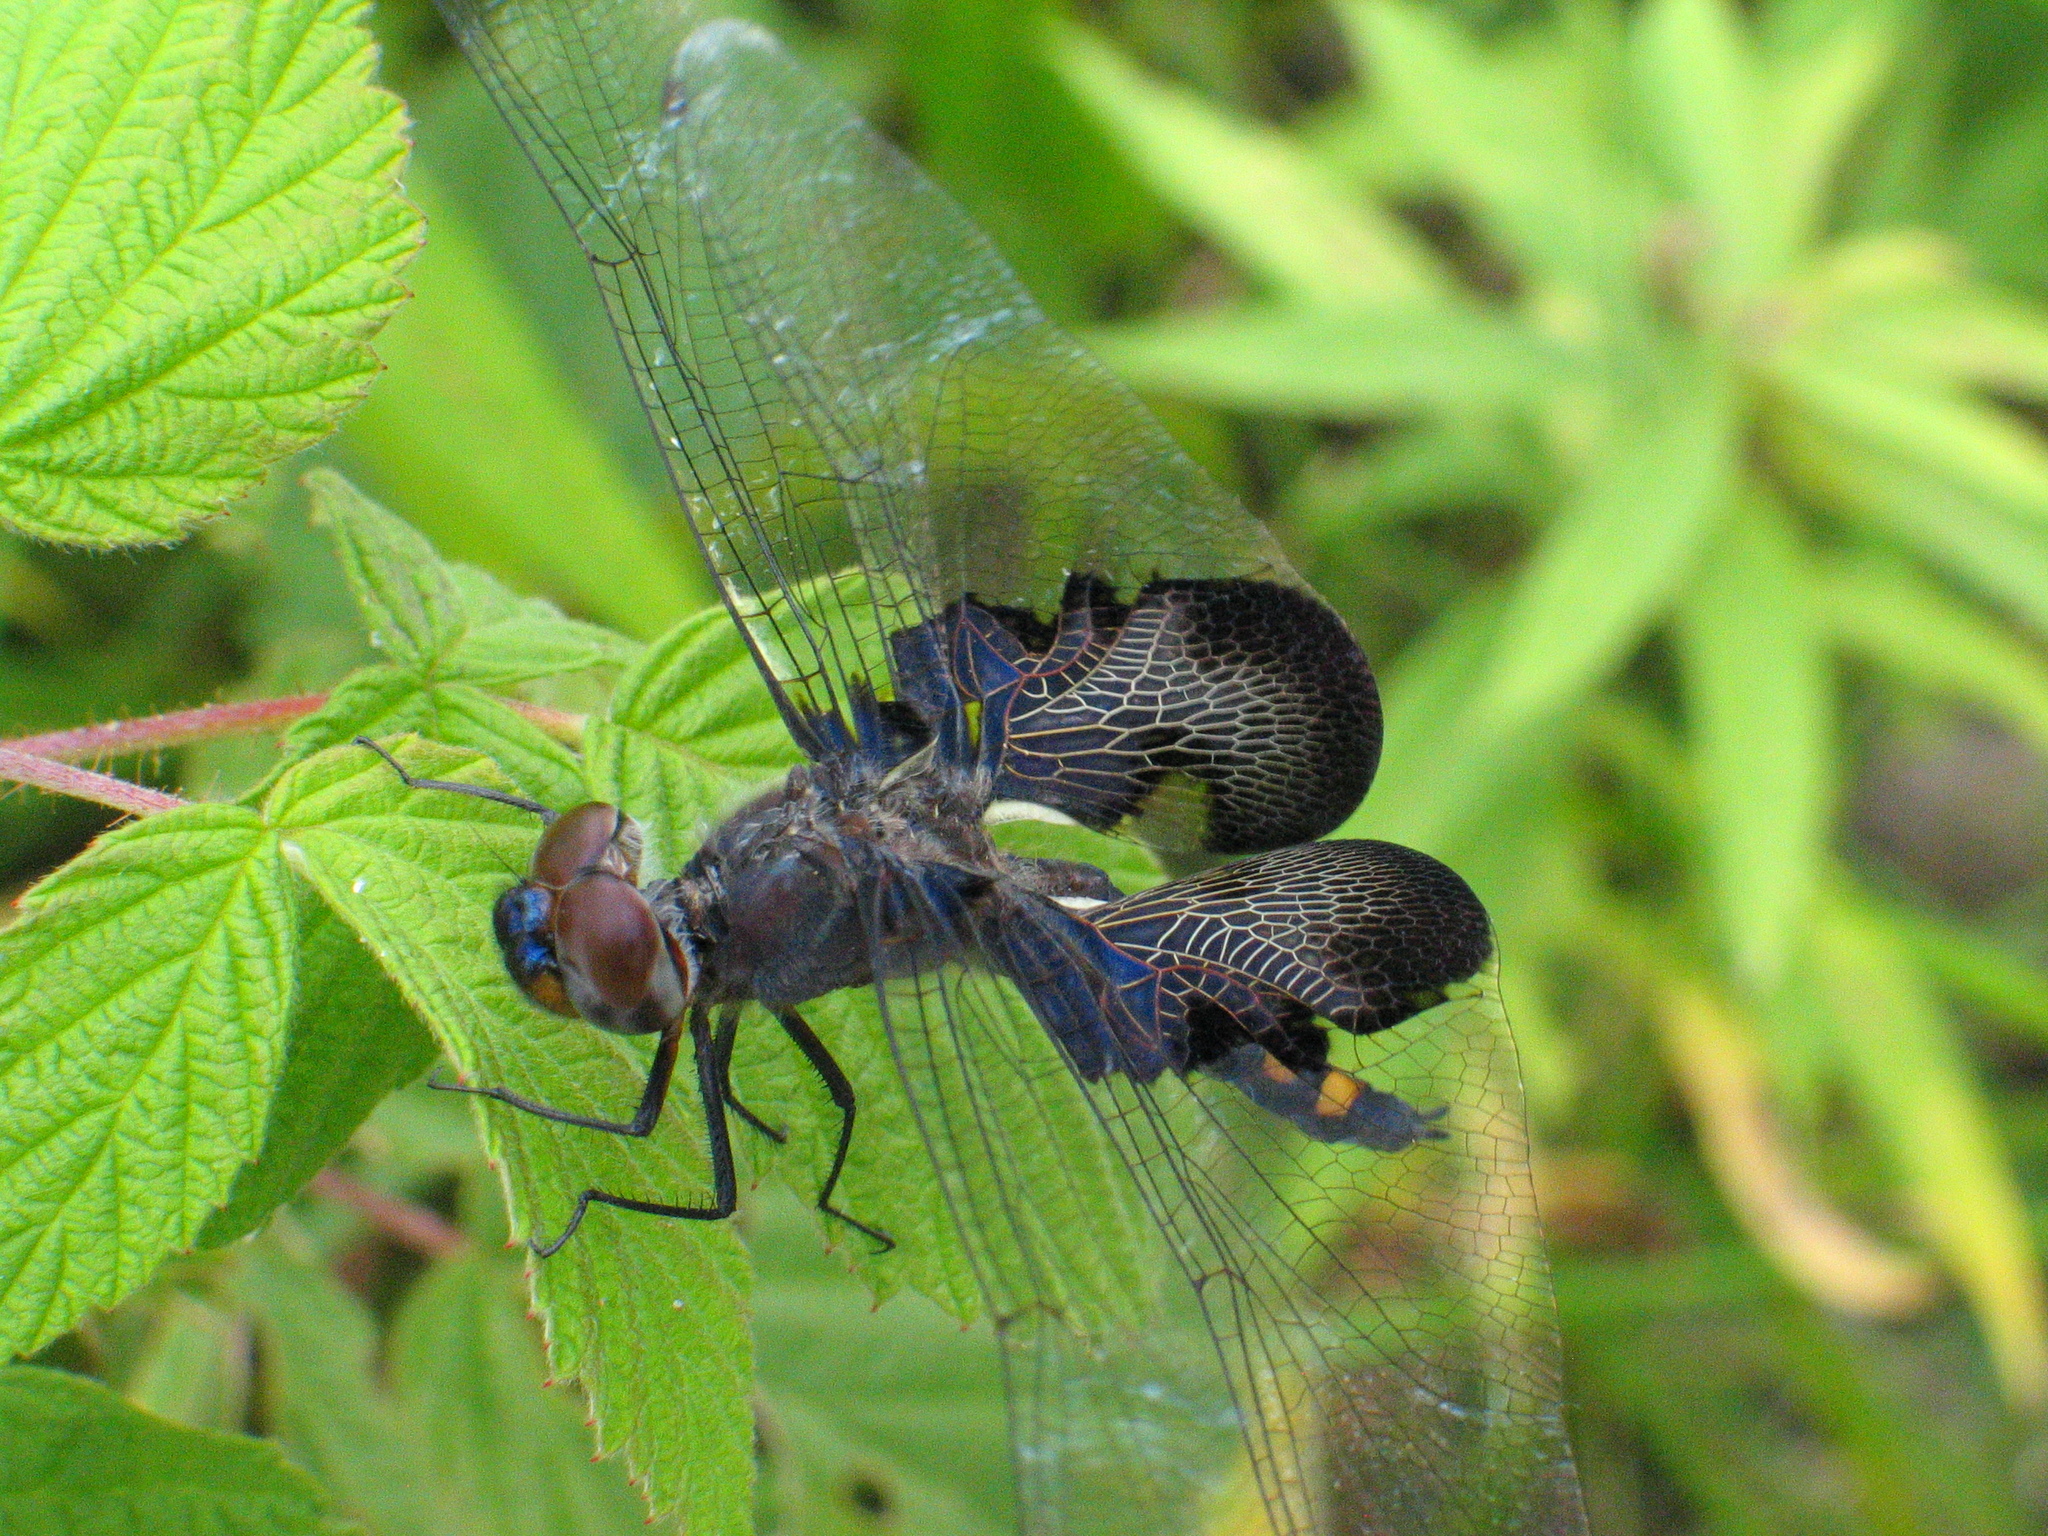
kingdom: Animalia
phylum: Arthropoda
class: Insecta
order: Odonata
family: Libellulidae
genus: Tramea
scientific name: Tramea lacerata
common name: Black saddlebags
